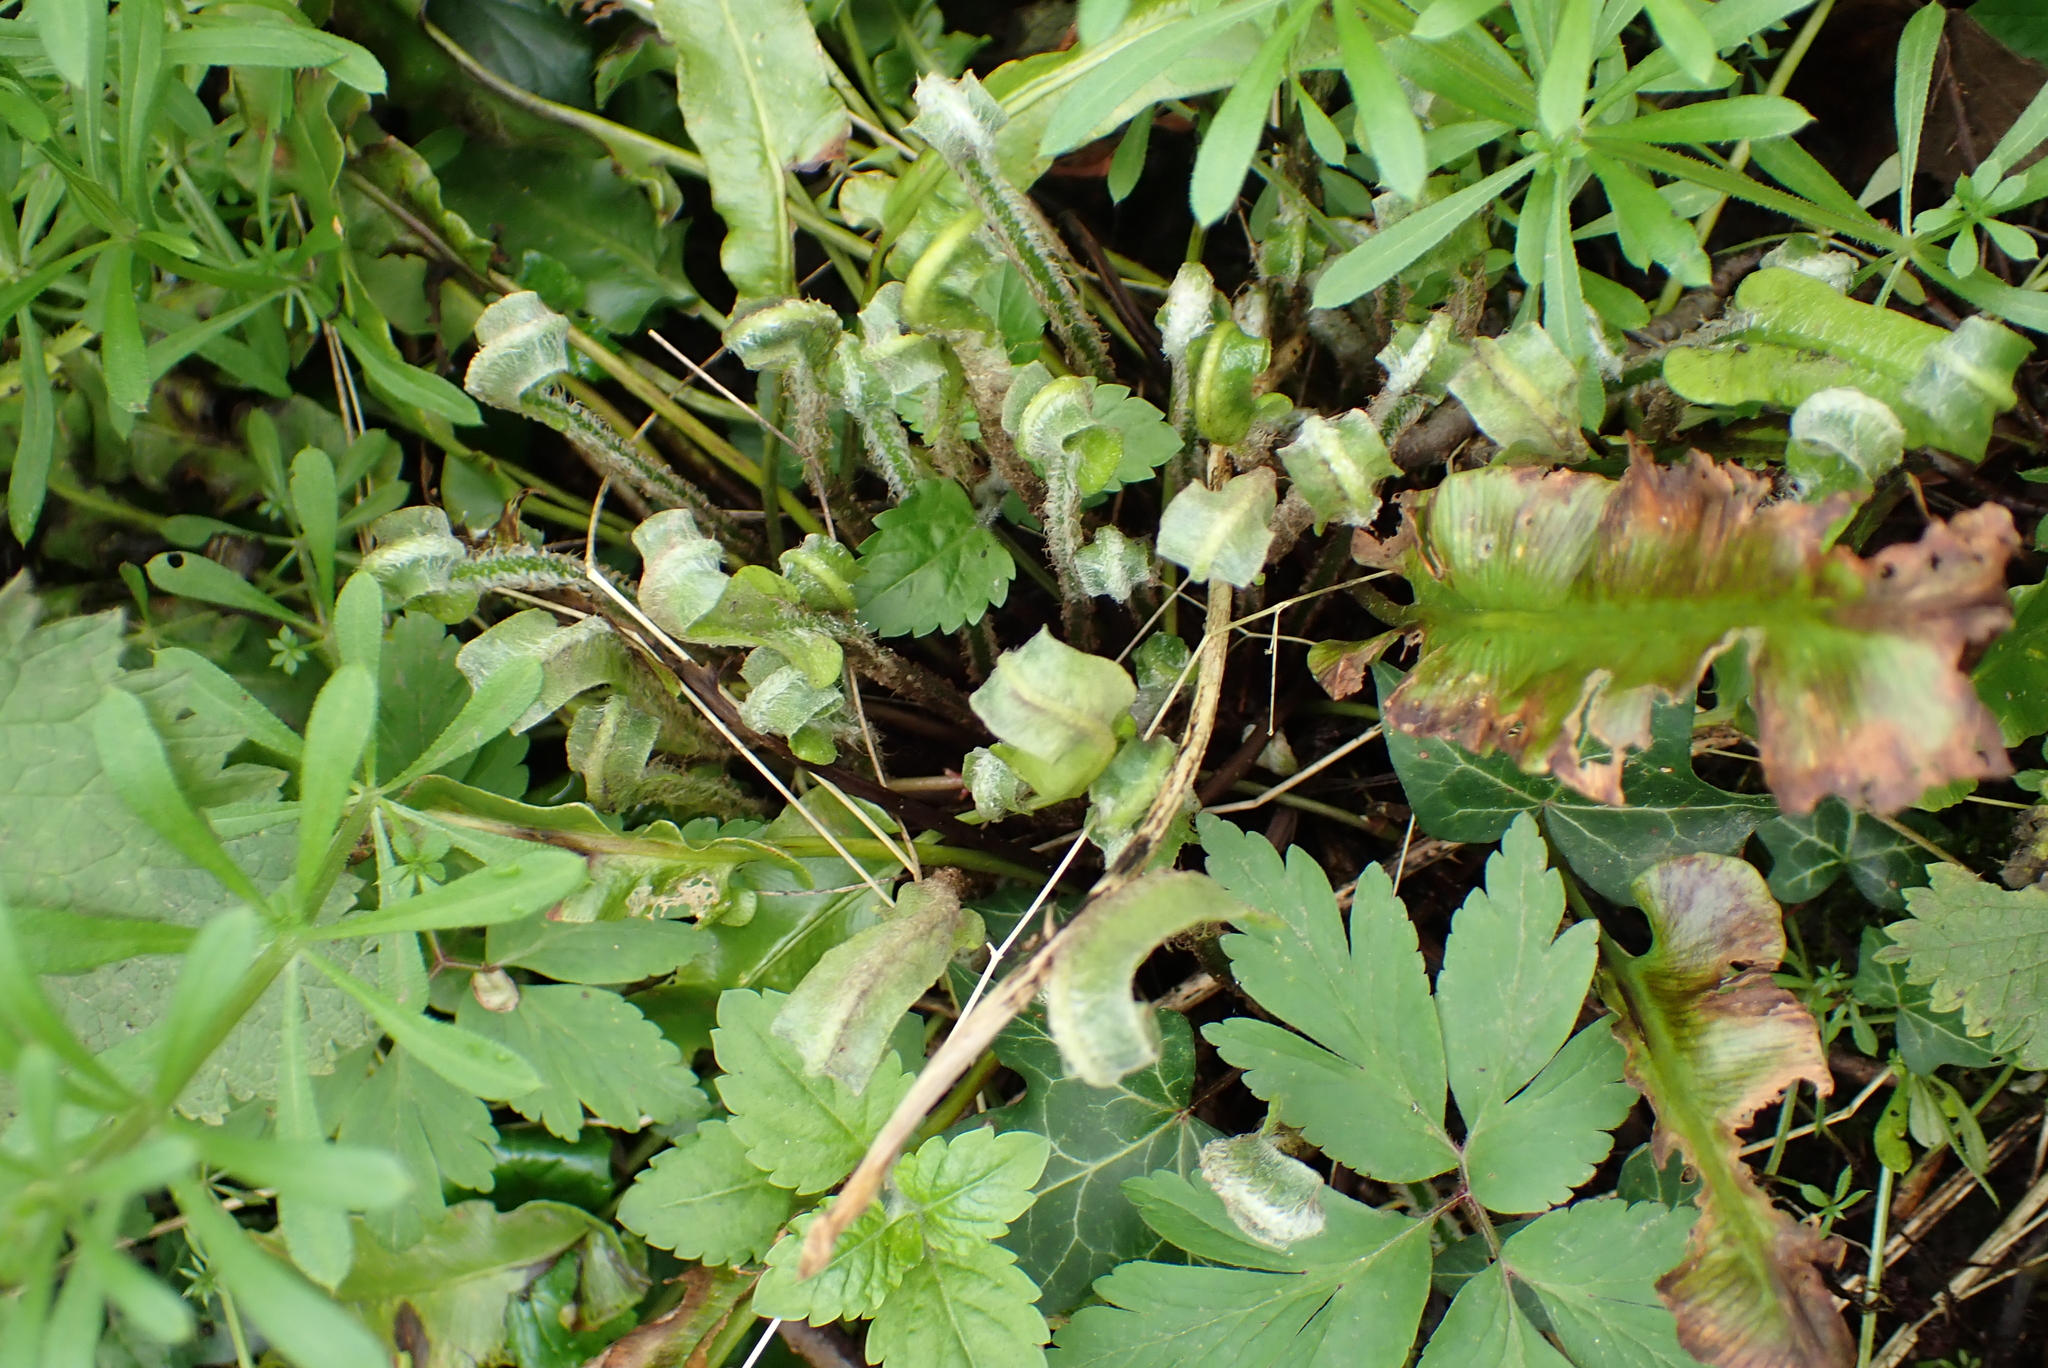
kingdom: Plantae
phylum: Tracheophyta
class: Polypodiopsida
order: Polypodiales
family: Aspleniaceae
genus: Asplenium
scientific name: Asplenium scolopendrium
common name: Hart's-tongue fern
